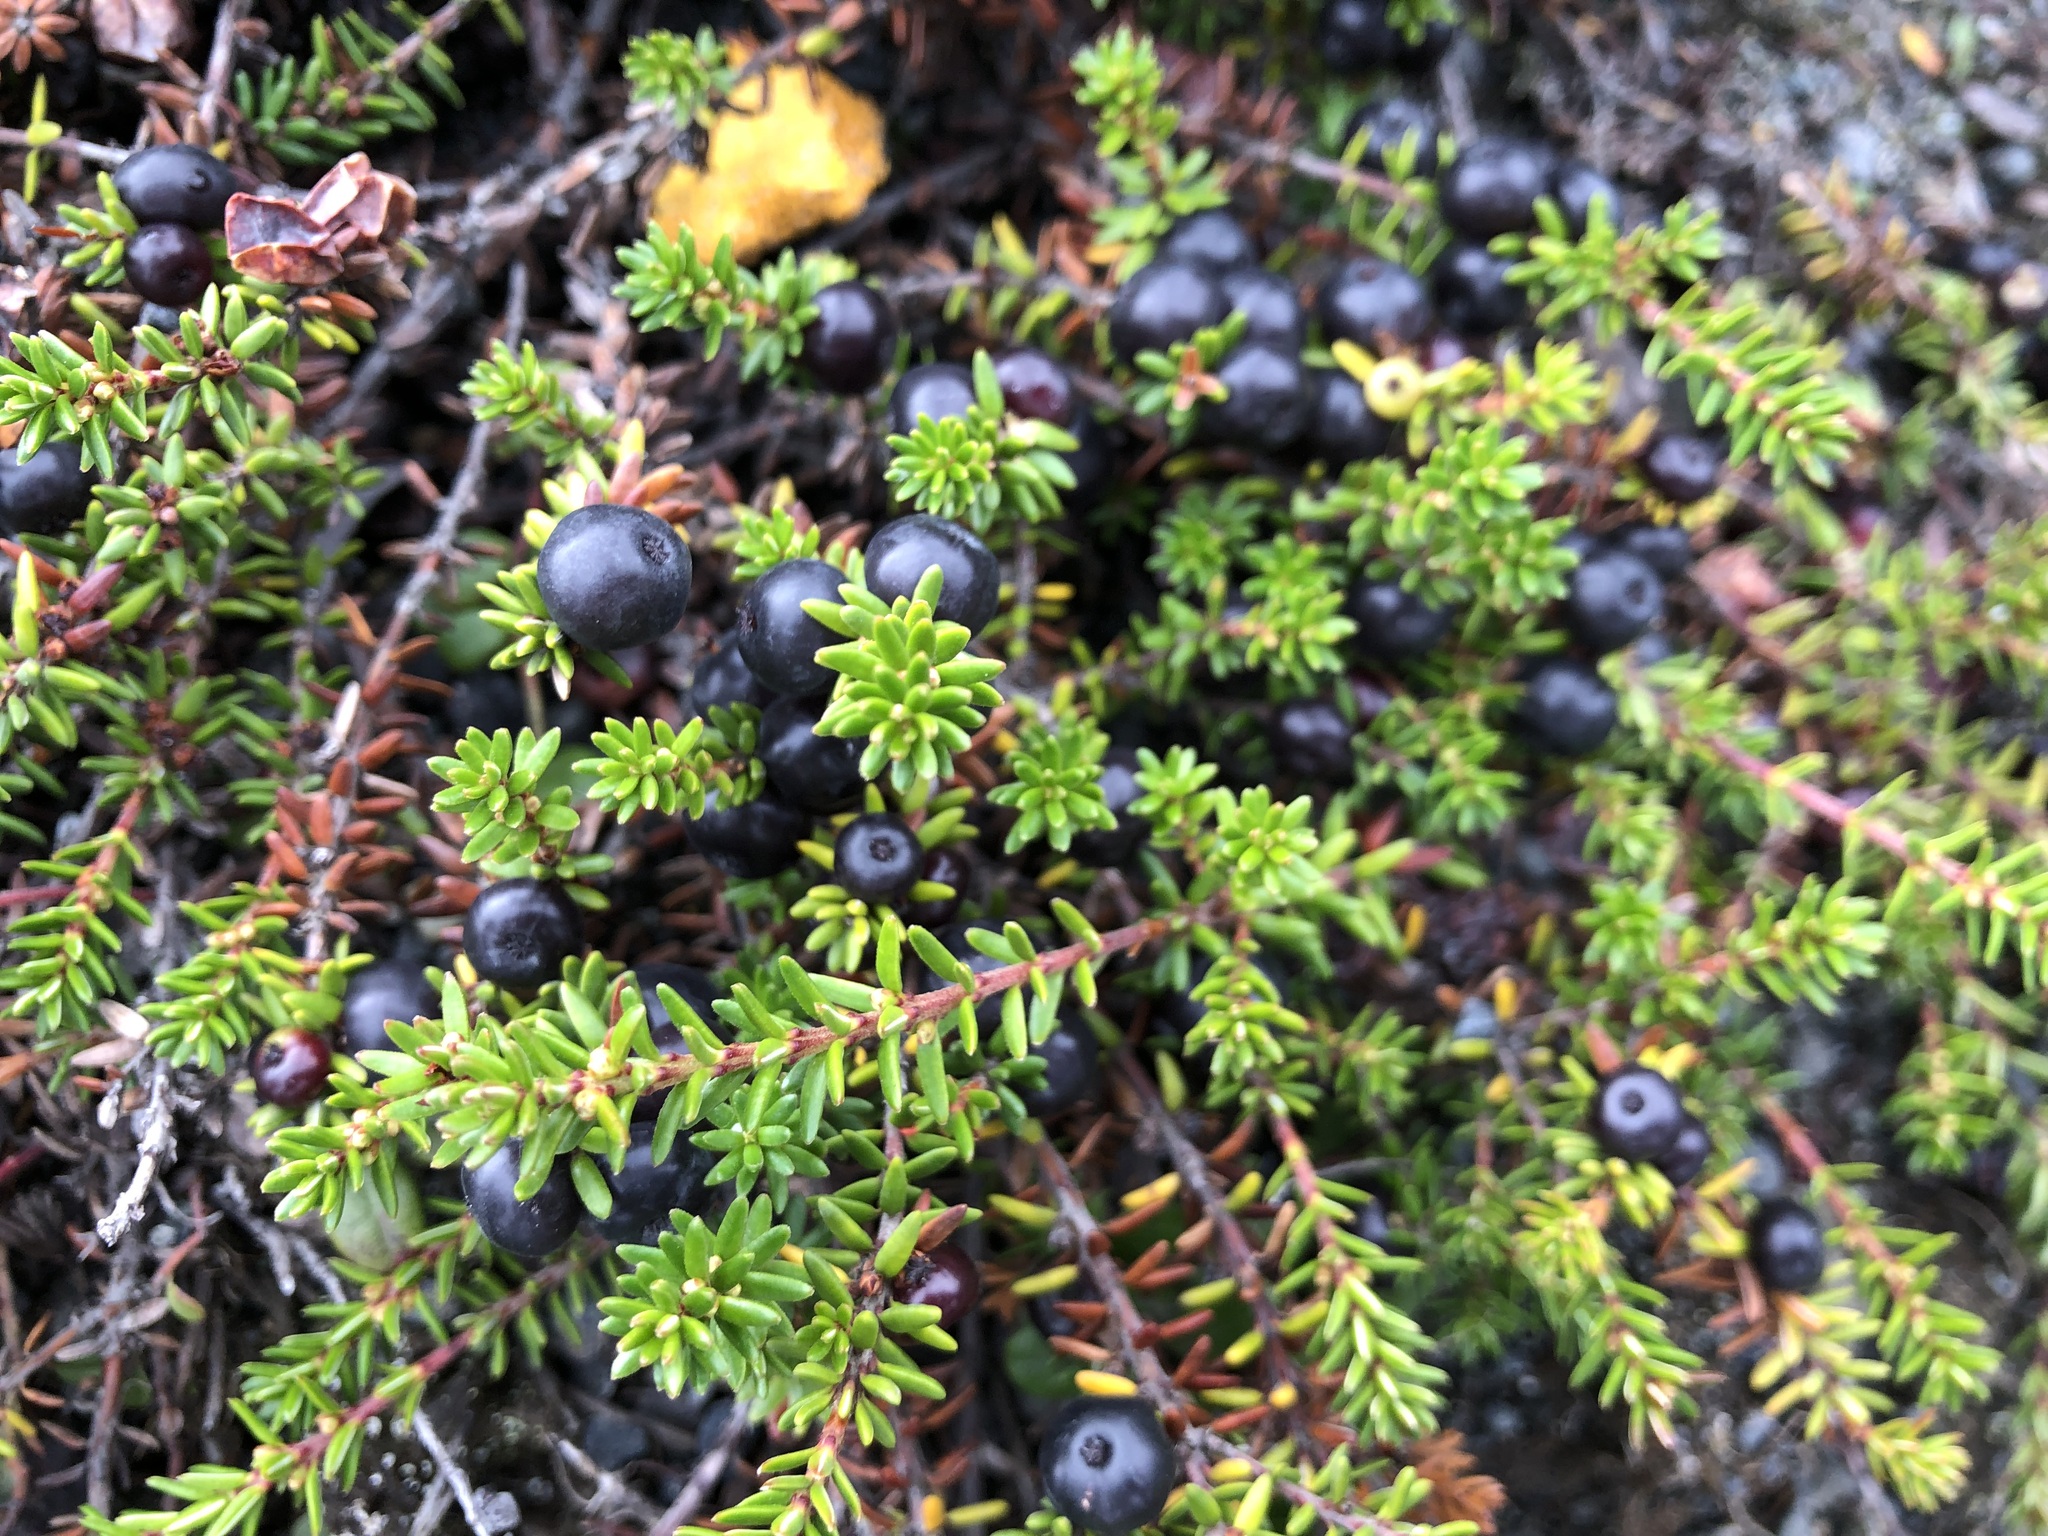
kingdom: Plantae
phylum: Tracheophyta
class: Magnoliopsida
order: Ericales
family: Ericaceae
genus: Empetrum
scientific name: Empetrum nigrum
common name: Black crowberry
